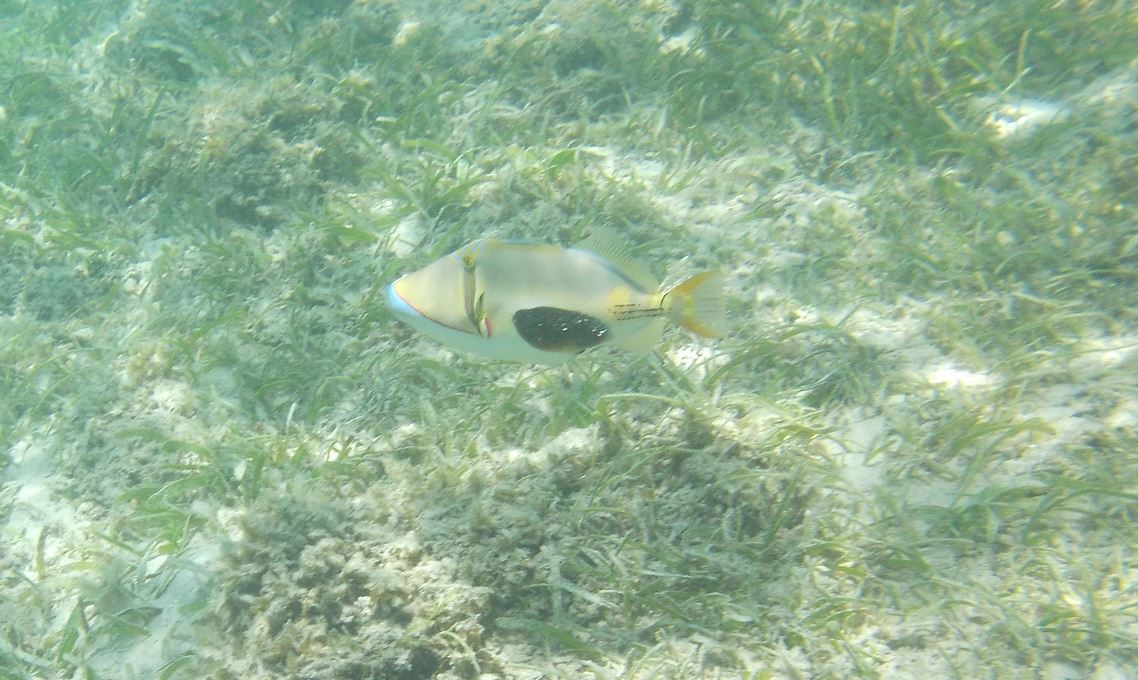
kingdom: Animalia
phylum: Chordata
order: Tetraodontiformes
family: Balistidae
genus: Rhinecanthus
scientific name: Rhinecanthus verrucosus
